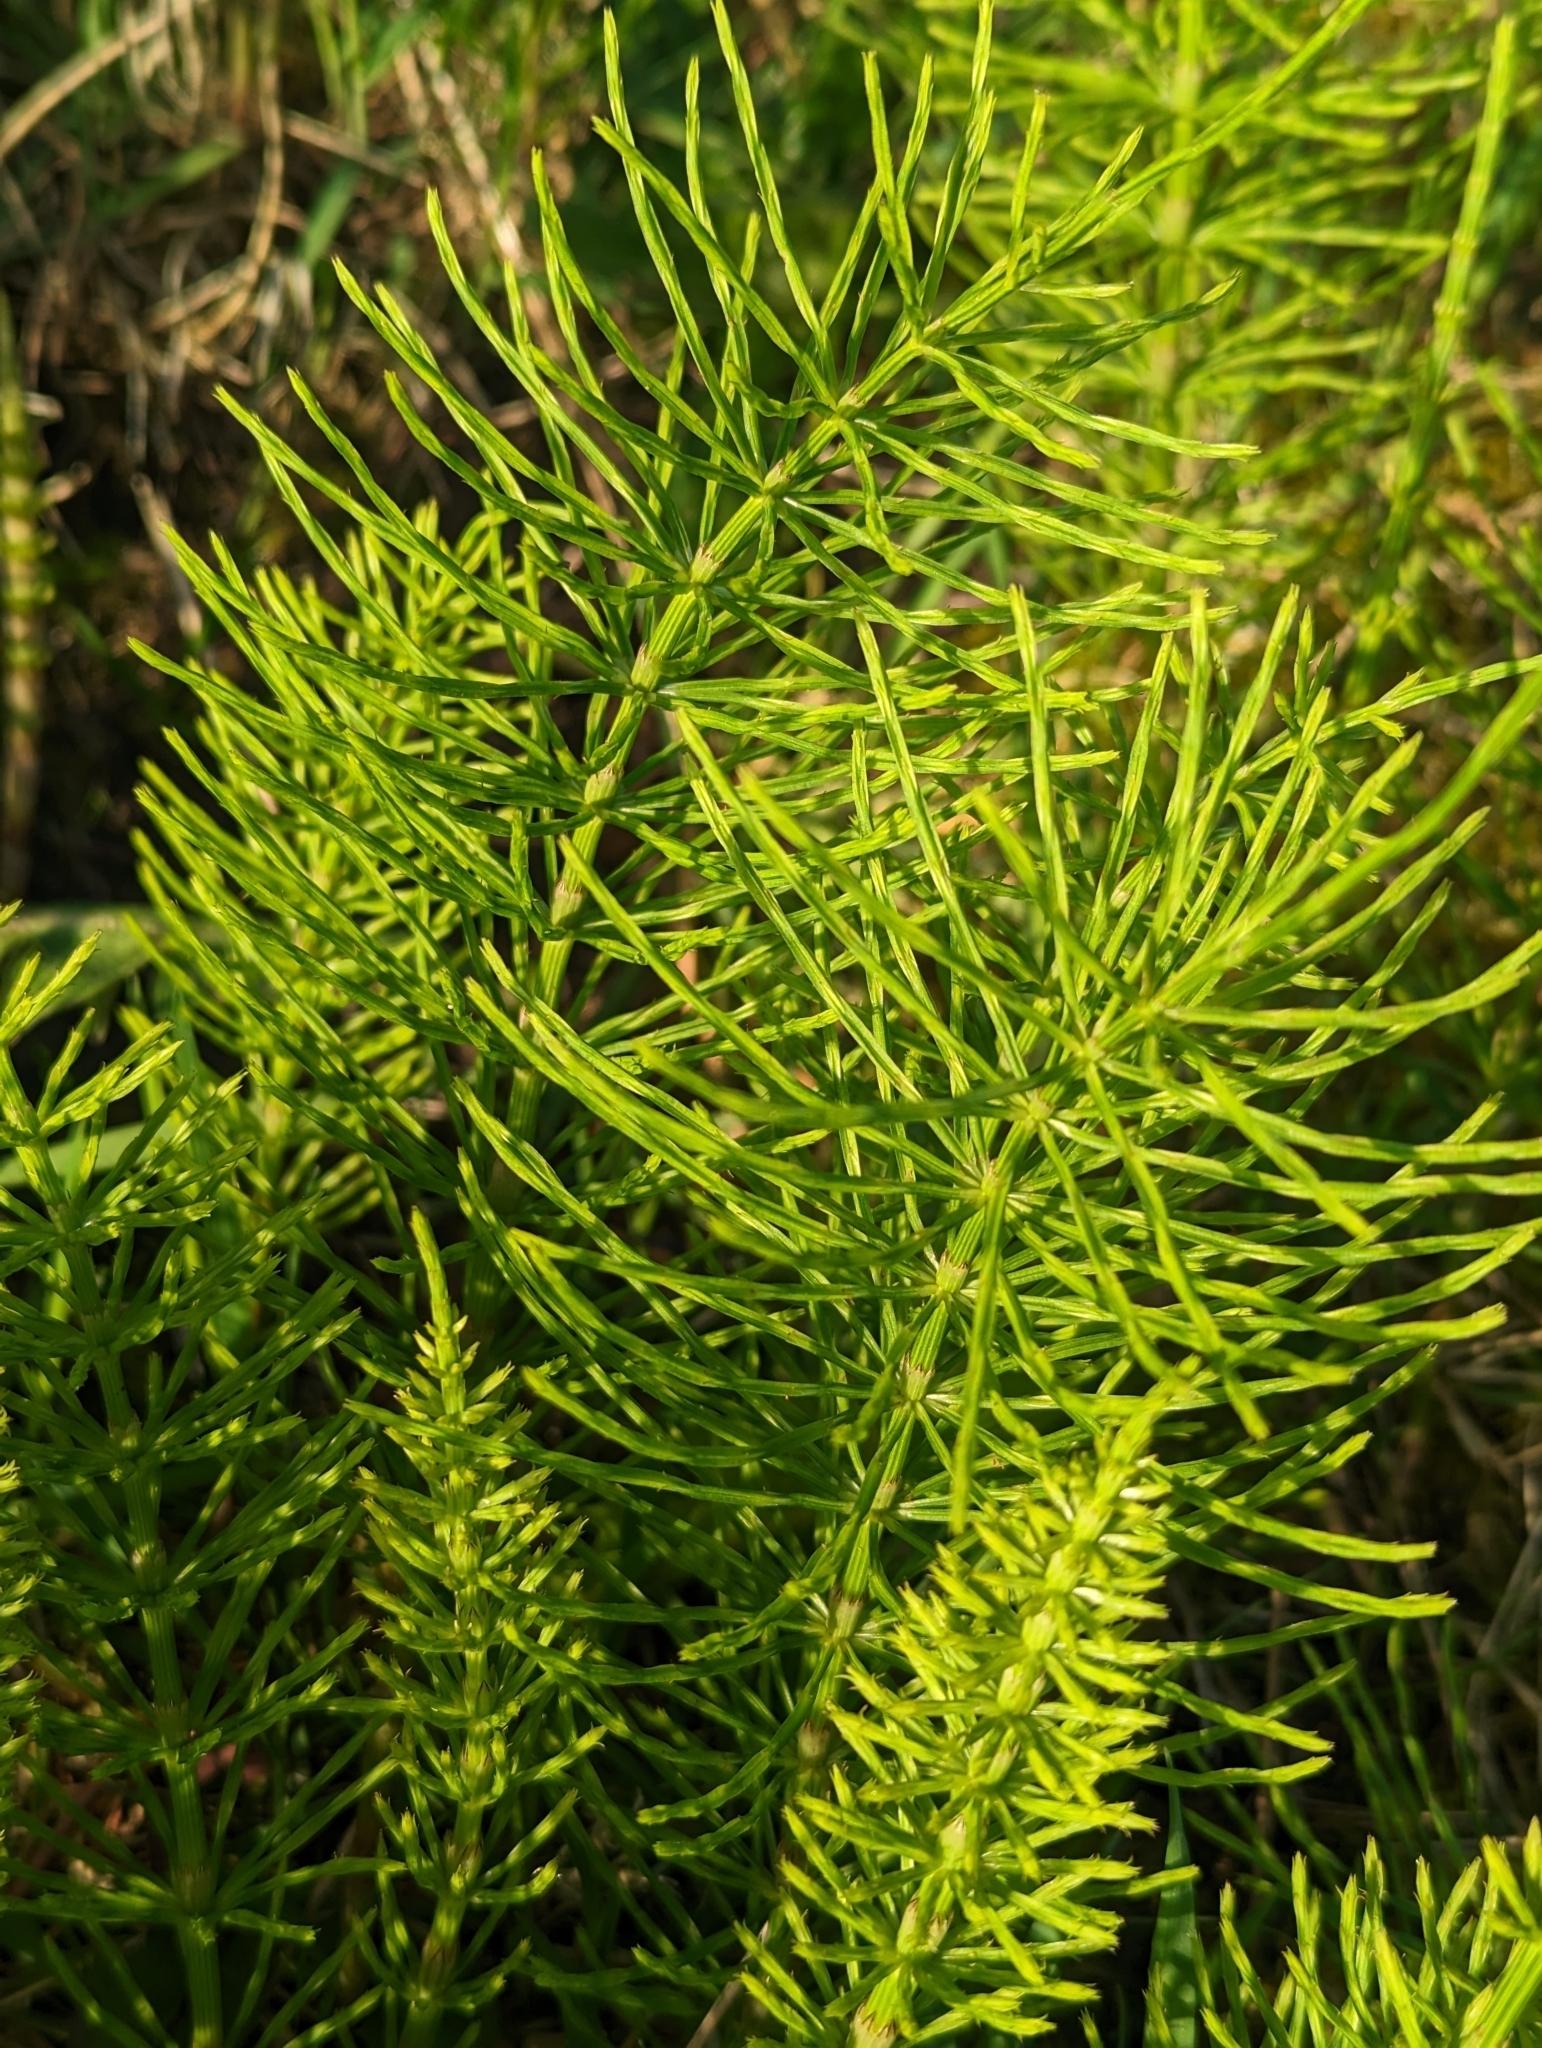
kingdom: Plantae
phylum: Tracheophyta
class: Polypodiopsida
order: Equisetales
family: Equisetaceae
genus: Equisetum
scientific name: Equisetum arvense
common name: Field horsetail
